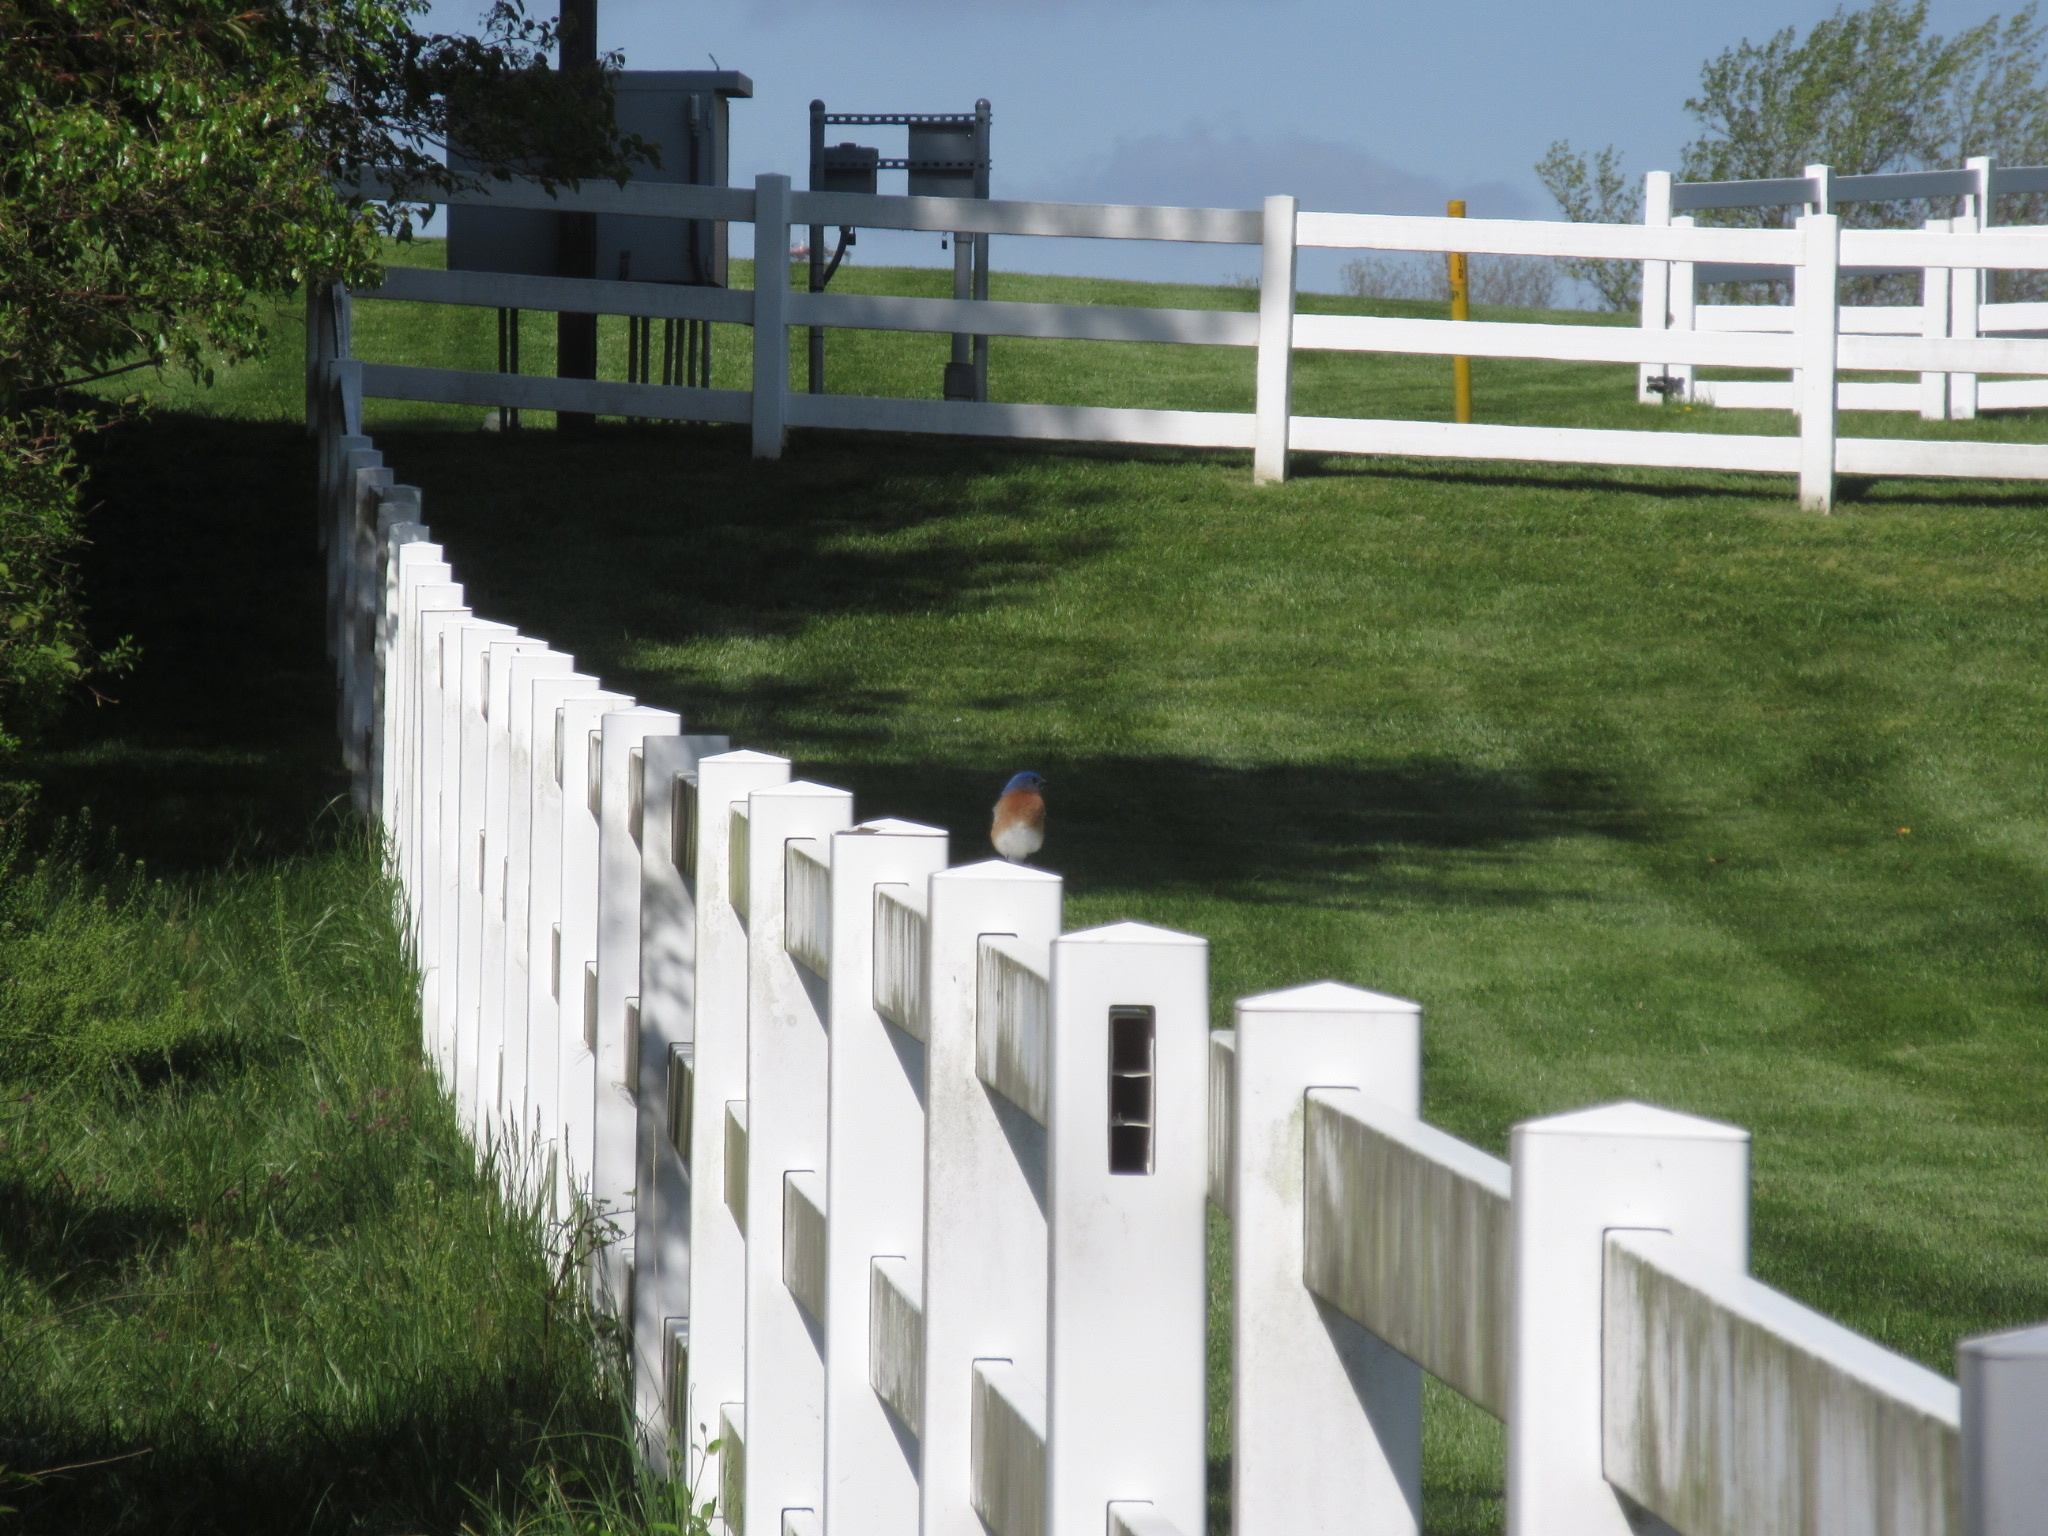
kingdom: Animalia
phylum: Chordata
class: Aves
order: Passeriformes
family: Turdidae
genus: Sialia
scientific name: Sialia sialis
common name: Eastern bluebird
